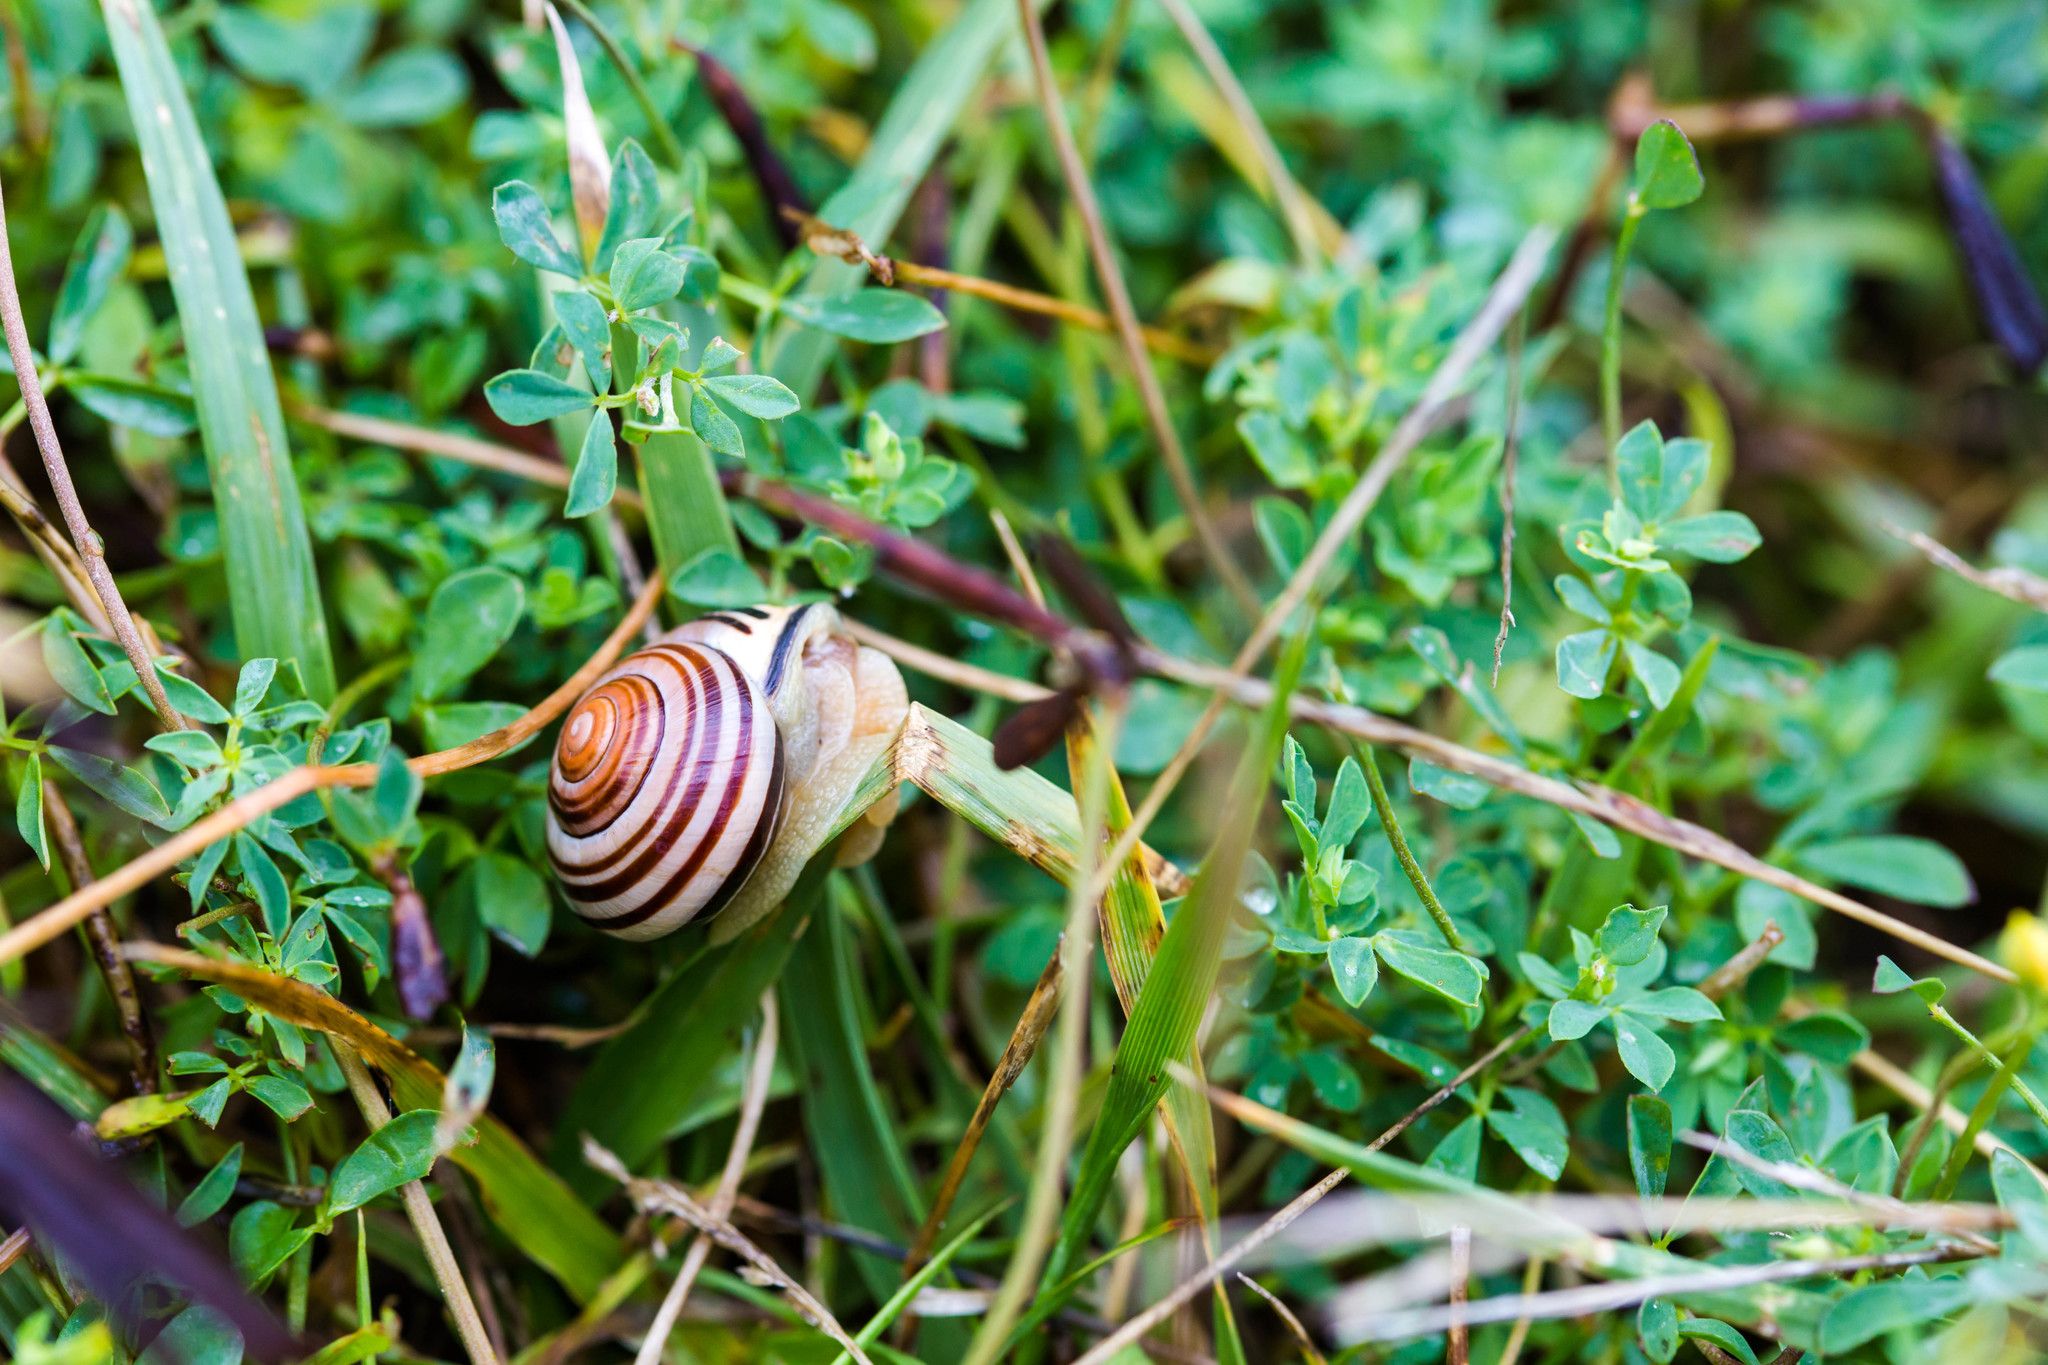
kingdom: Animalia
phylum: Mollusca
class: Gastropoda
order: Stylommatophora
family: Helicidae
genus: Cepaea
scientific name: Cepaea nemoralis
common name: Grovesnail
